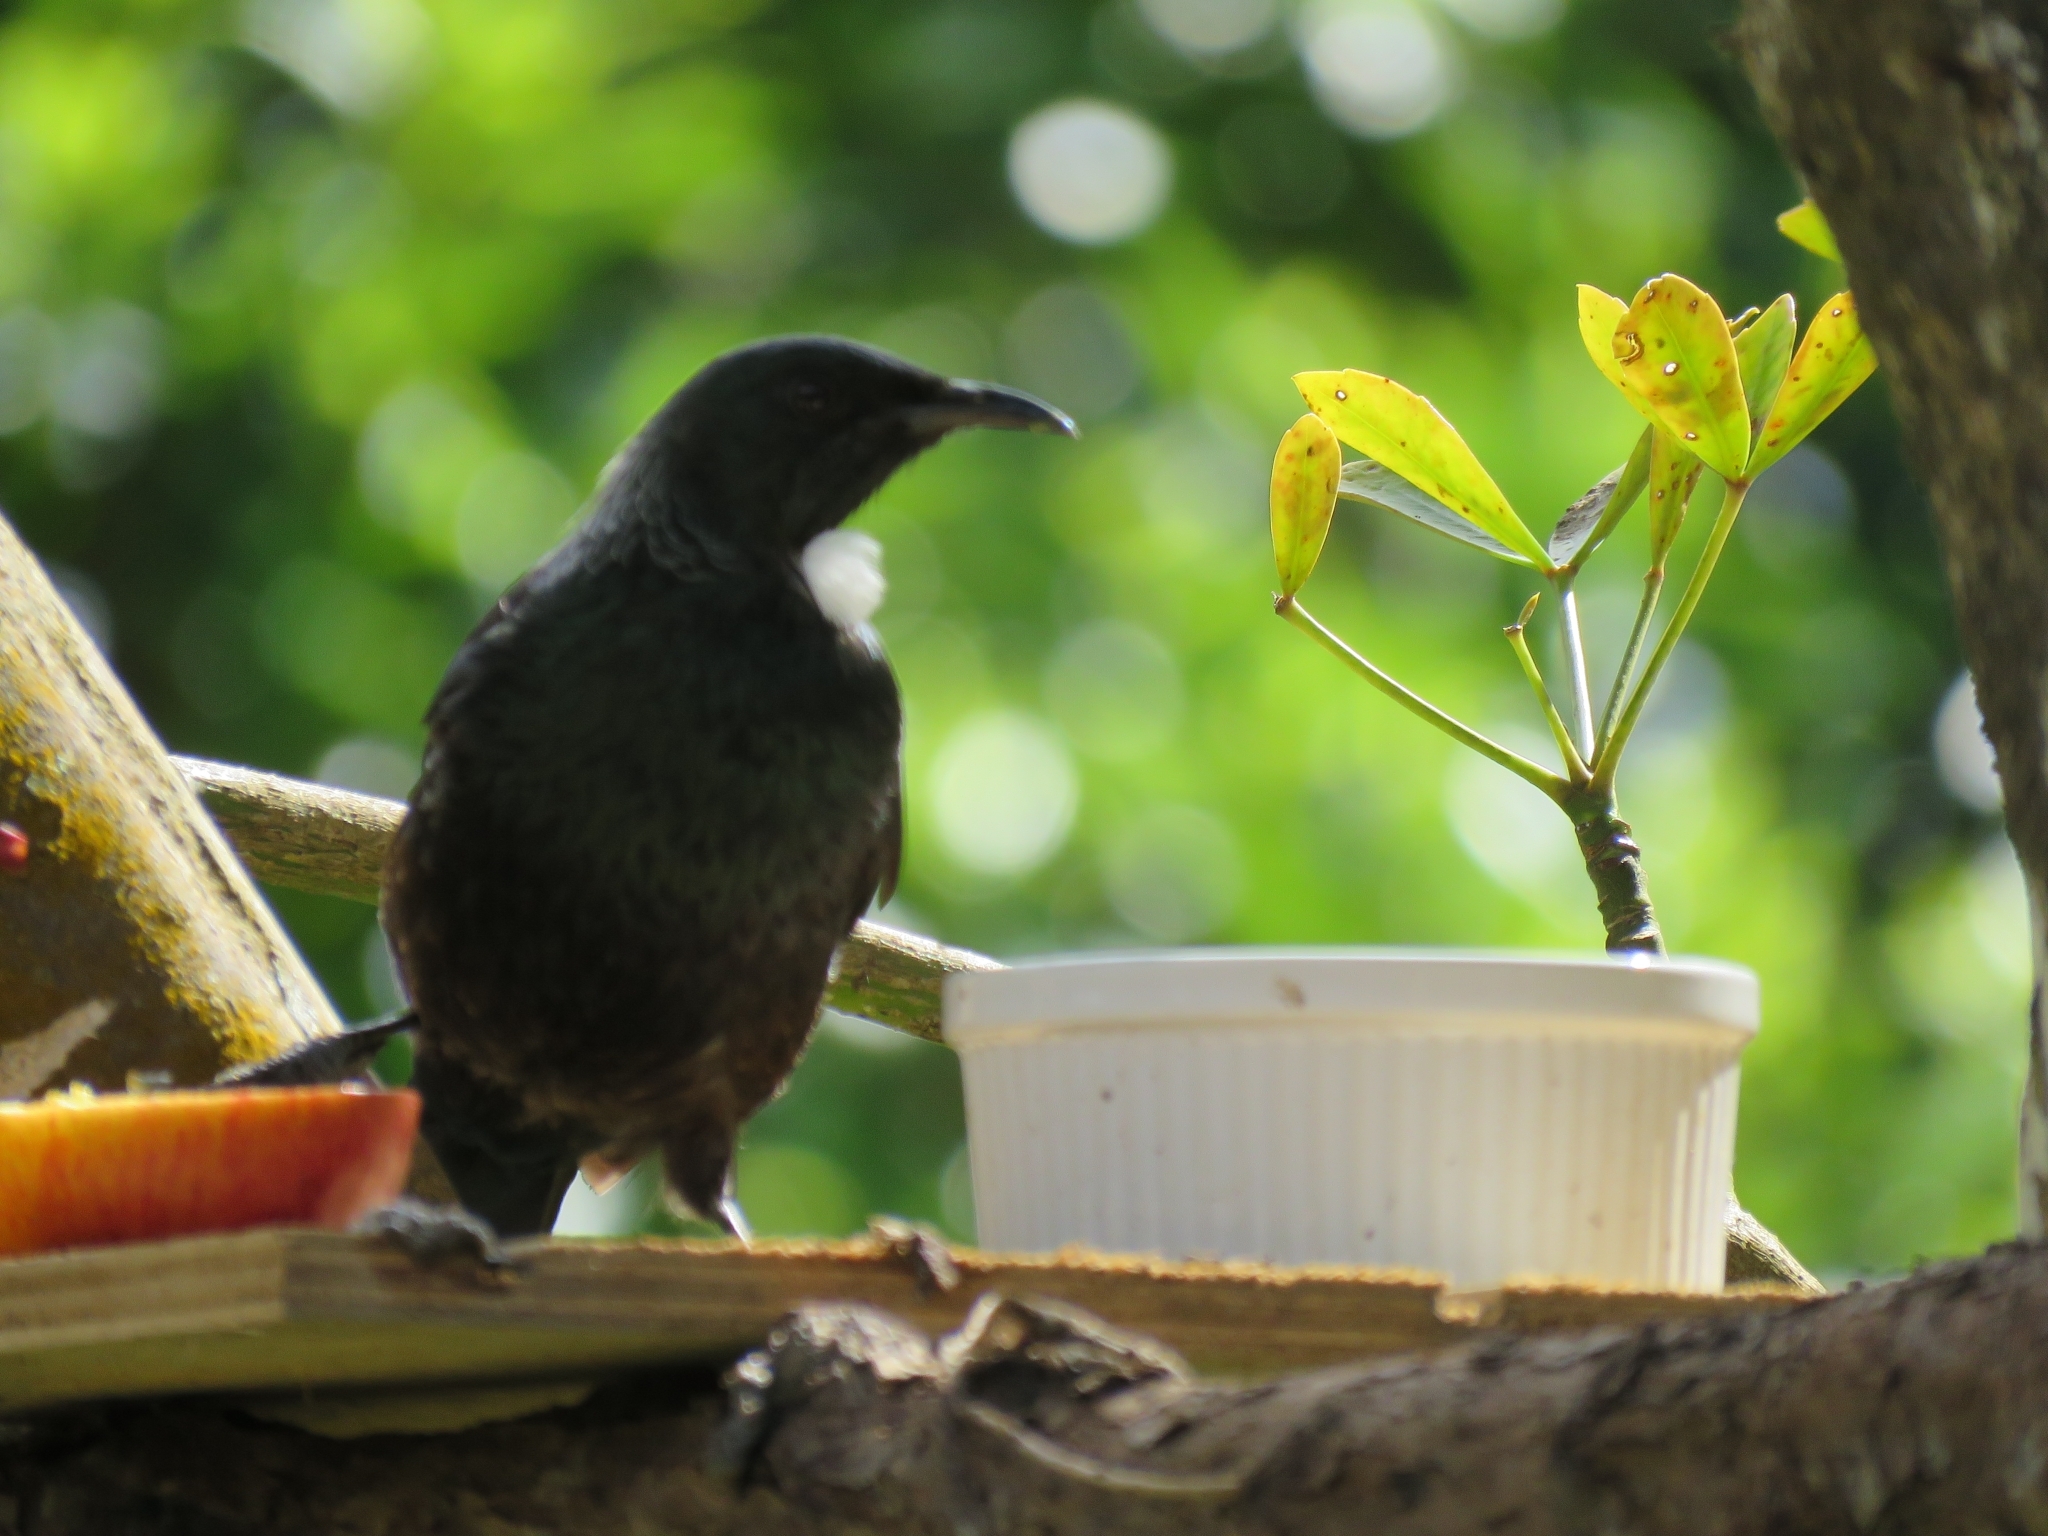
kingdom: Animalia
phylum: Chordata
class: Aves
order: Passeriformes
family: Meliphagidae
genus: Prosthemadera
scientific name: Prosthemadera novaeseelandiae
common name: Tui
